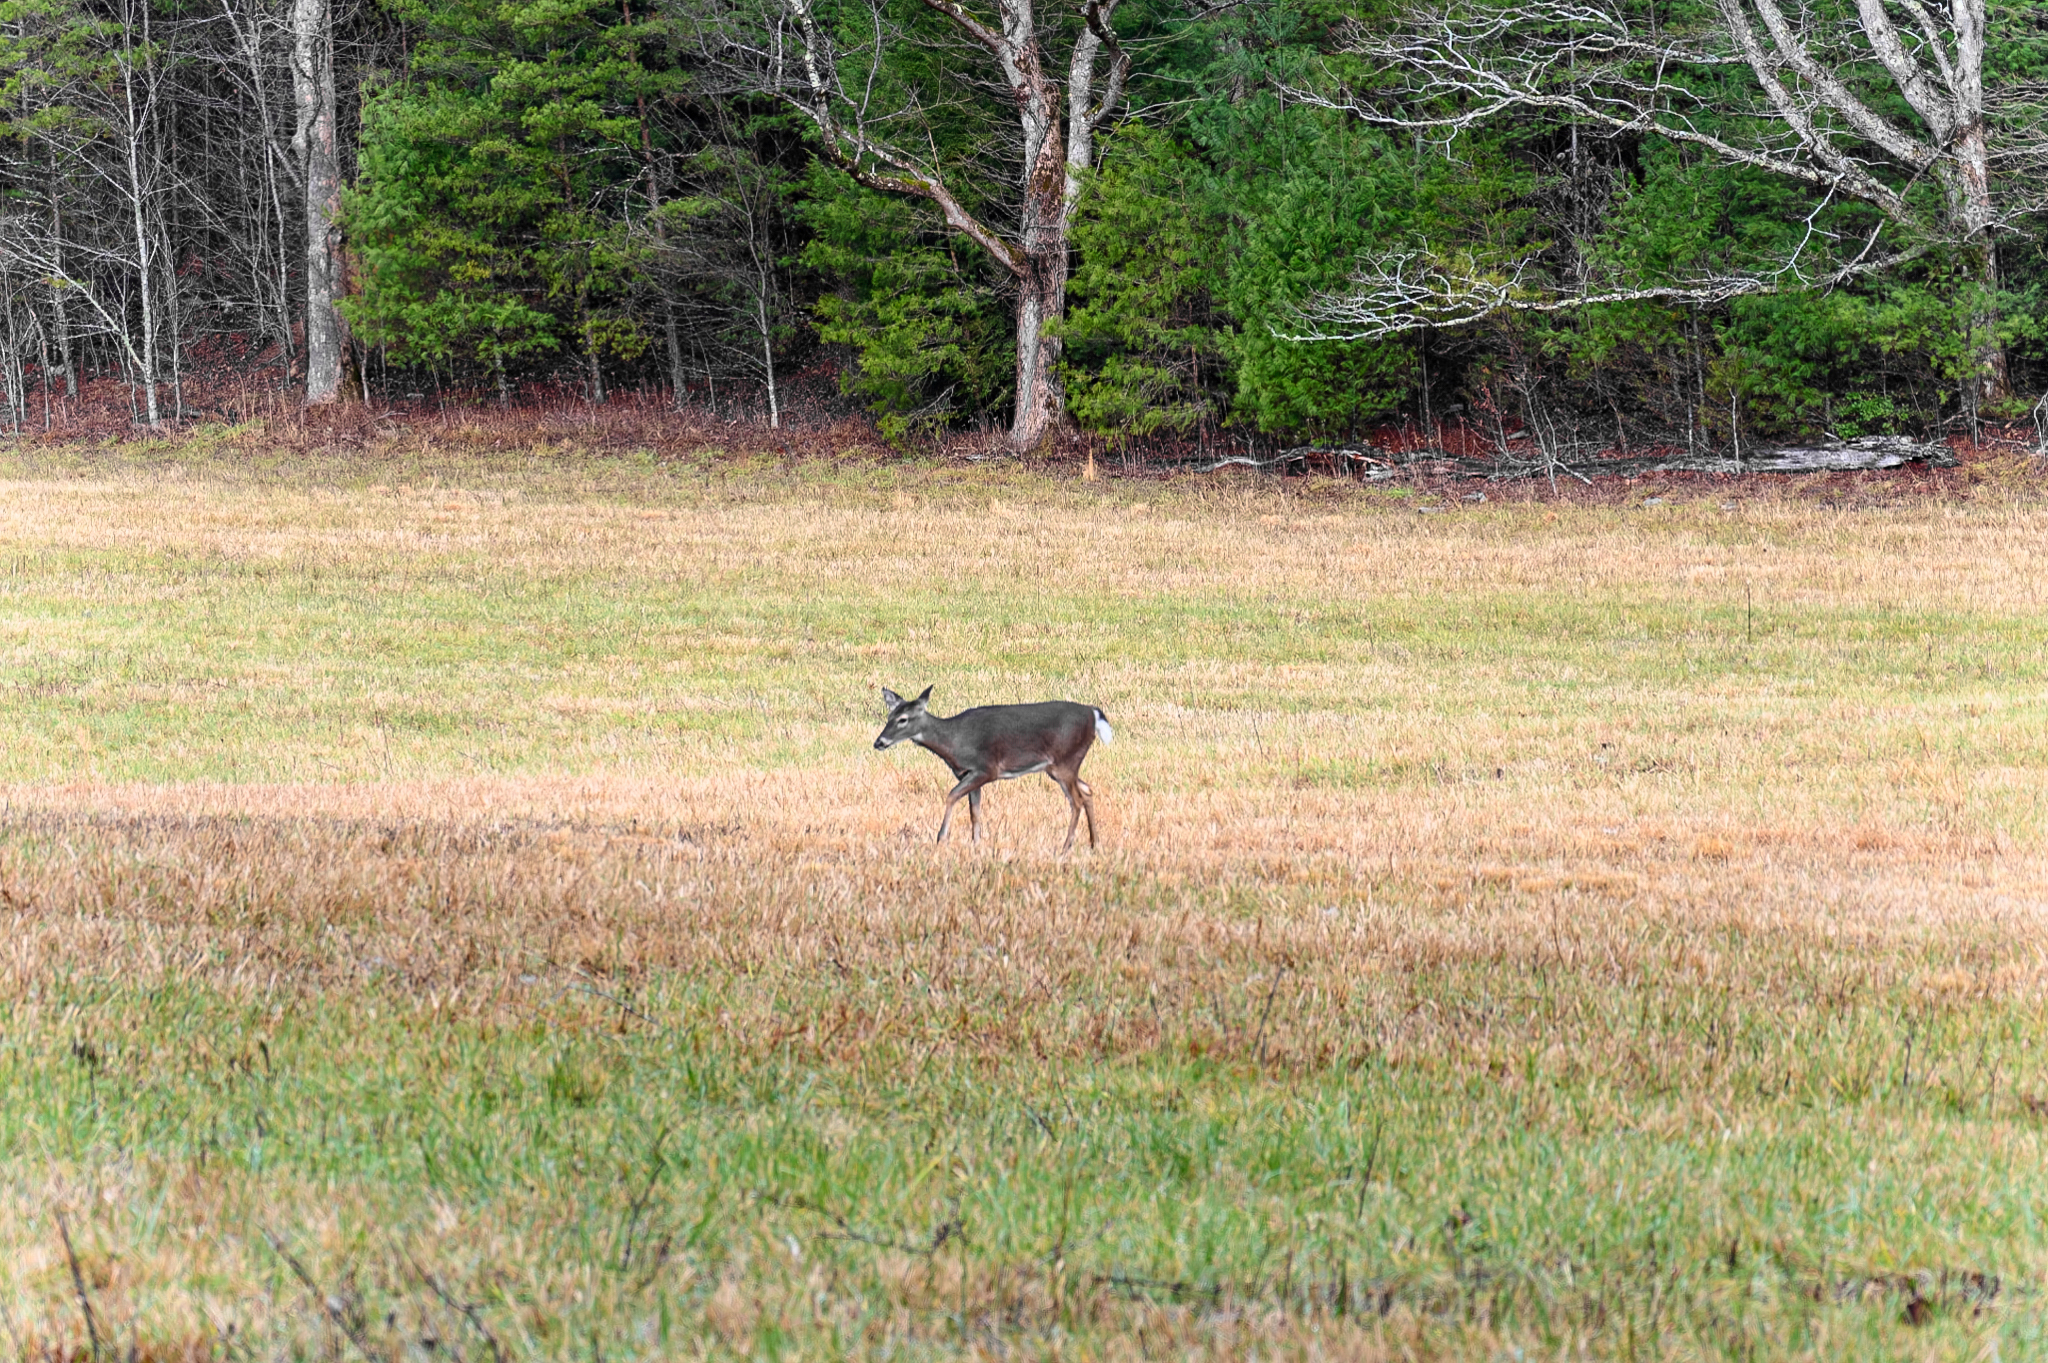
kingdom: Animalia
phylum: Chordata
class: Mammalia
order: Artiodactyla
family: Cervidae
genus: Odocoileus
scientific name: Odocoileus virginianus
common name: White-tailed deer
